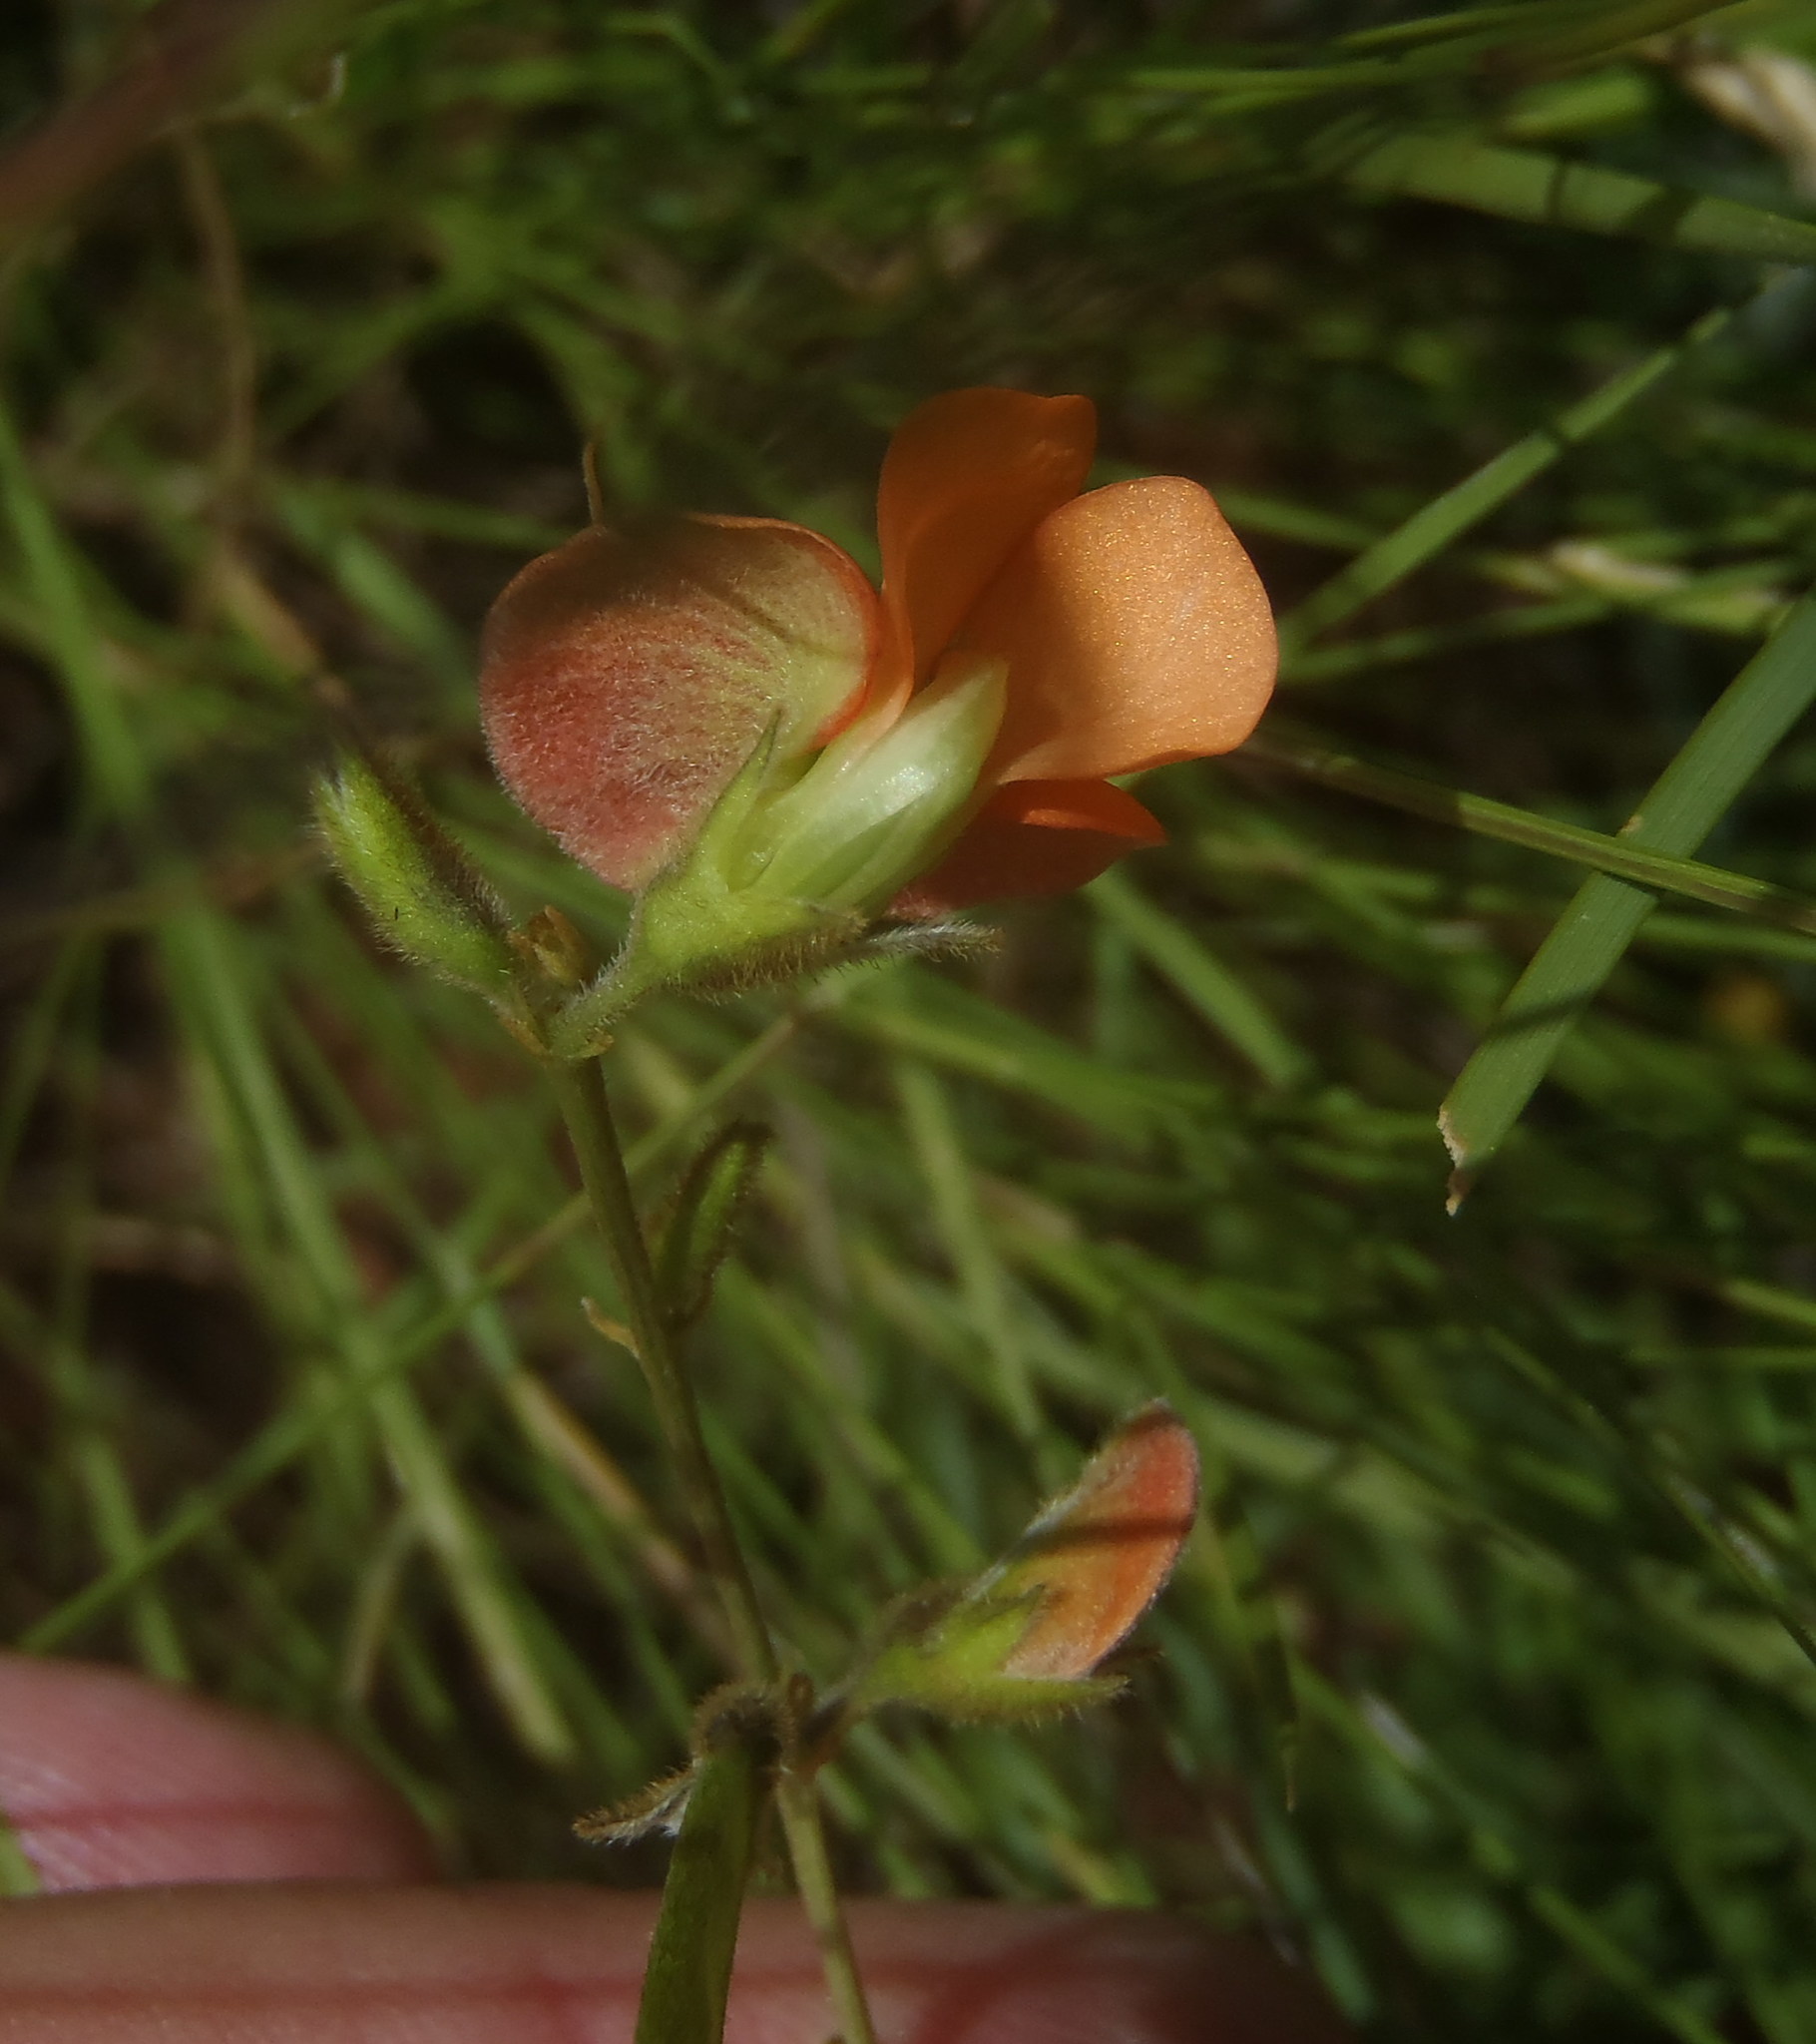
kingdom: Plantae
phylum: Tracheophyta
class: Magnoliopsida
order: Fabales
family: Fabaceae
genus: Tephrosia
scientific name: Tephrosia elongata
